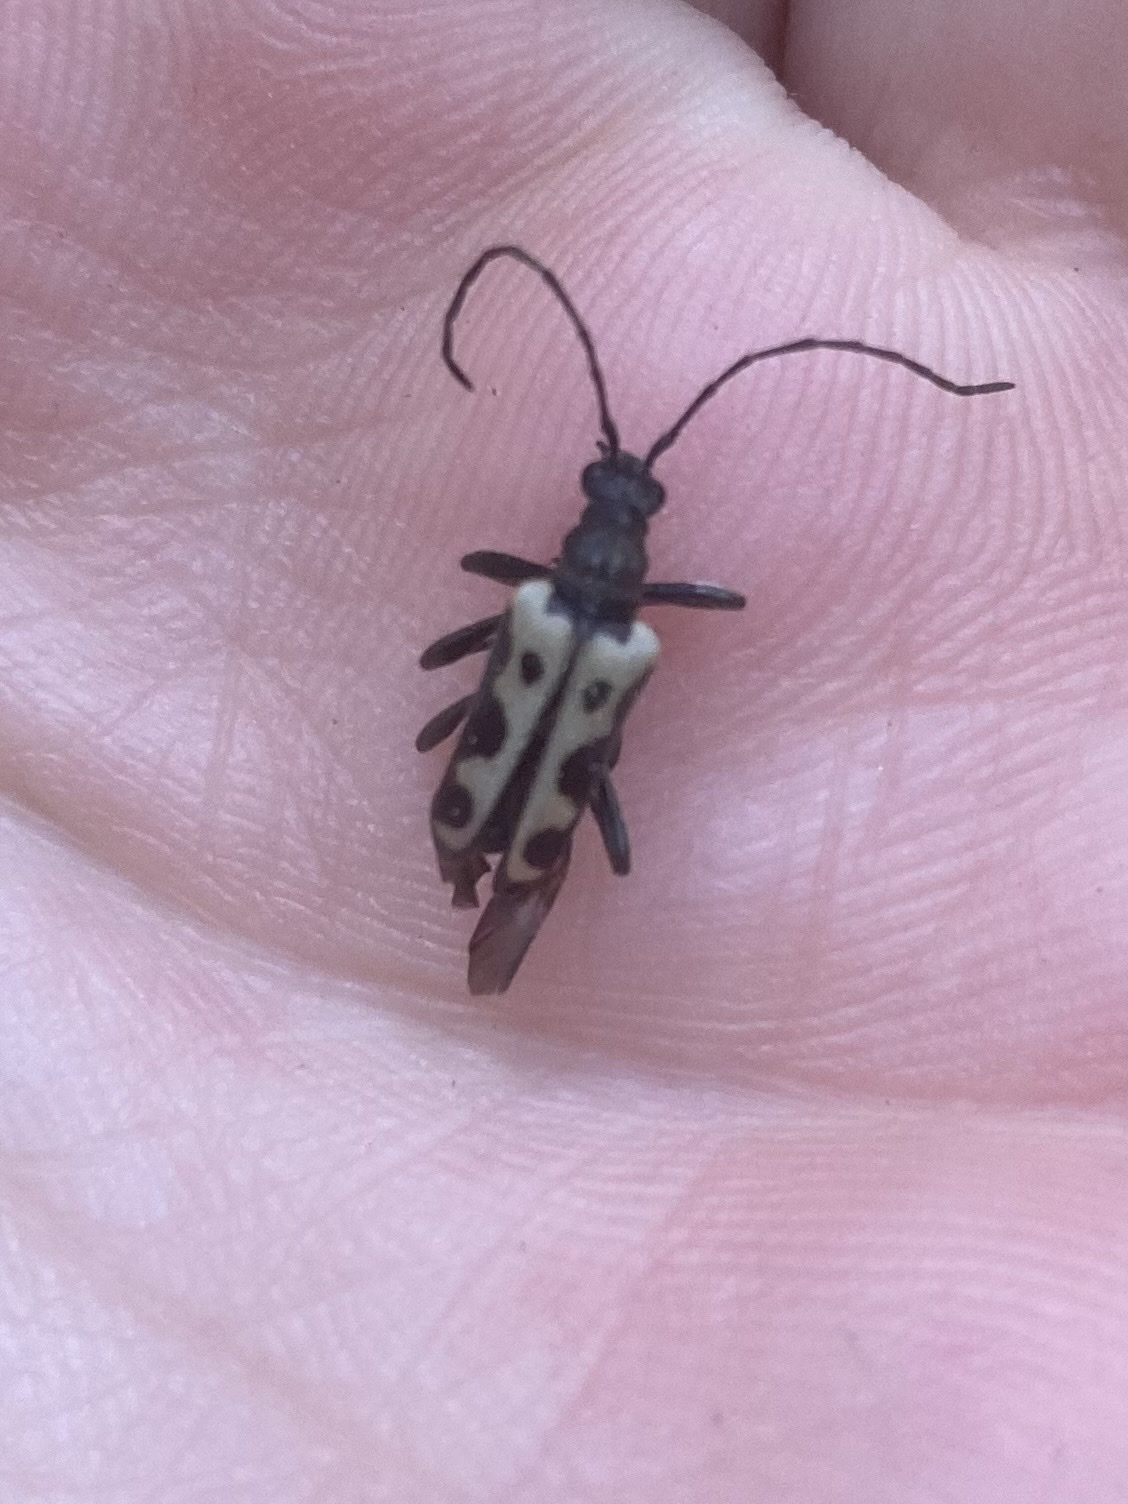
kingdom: Animalia
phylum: Arthropoda
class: Insecta
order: Coleoptera
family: Cerambycidae
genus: Evodinus
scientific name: Evodinus monticola
